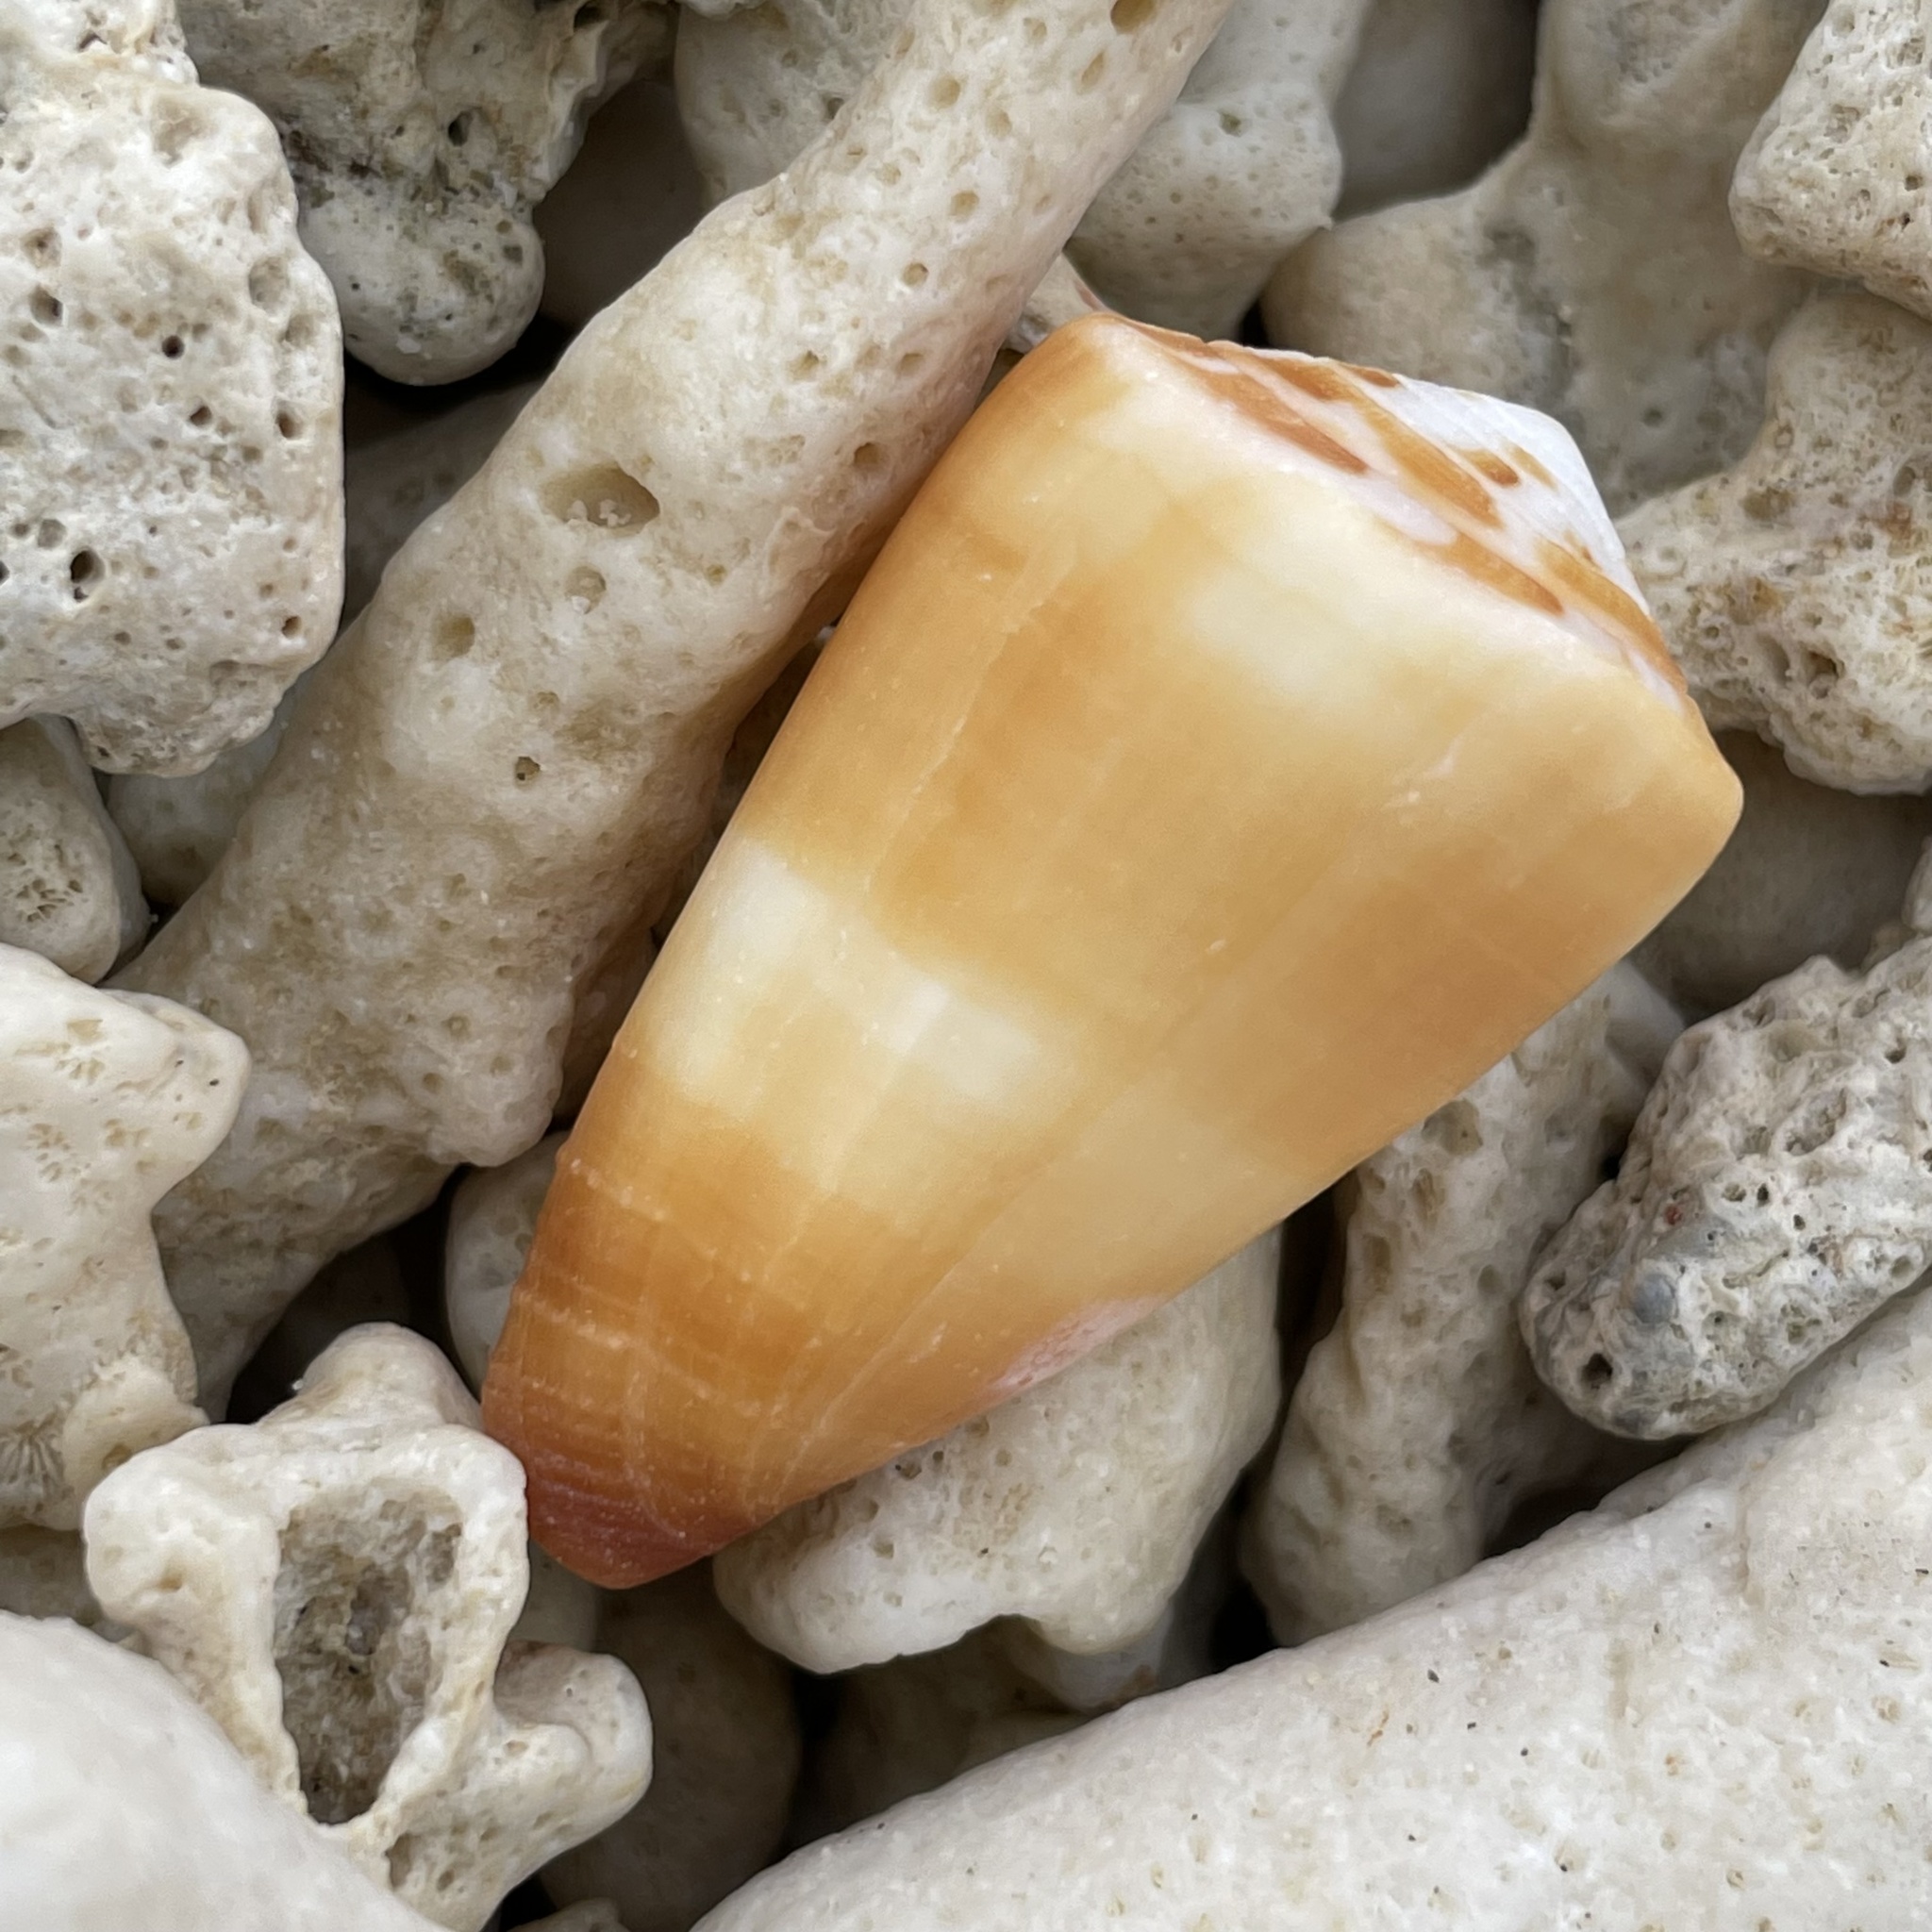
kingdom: Animalia
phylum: Mollusca
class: Gastropoda
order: Neogastropoda
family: Conidae
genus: Conus
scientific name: Conus planorbis
